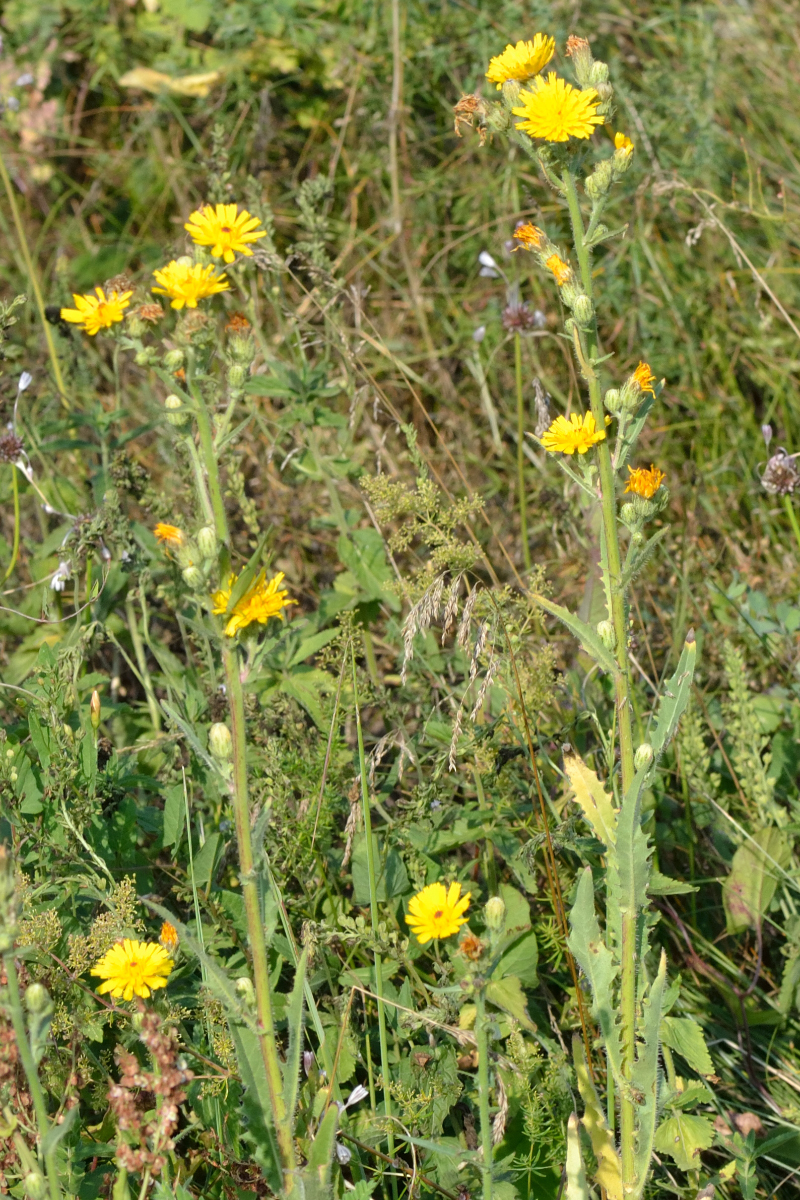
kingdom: Plantae
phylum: Tracheophyta
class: Magnoliopsida
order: Asterales
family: Asteraceae
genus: Picris
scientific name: Picris hieracioides
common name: Hawkweed oxtongue
